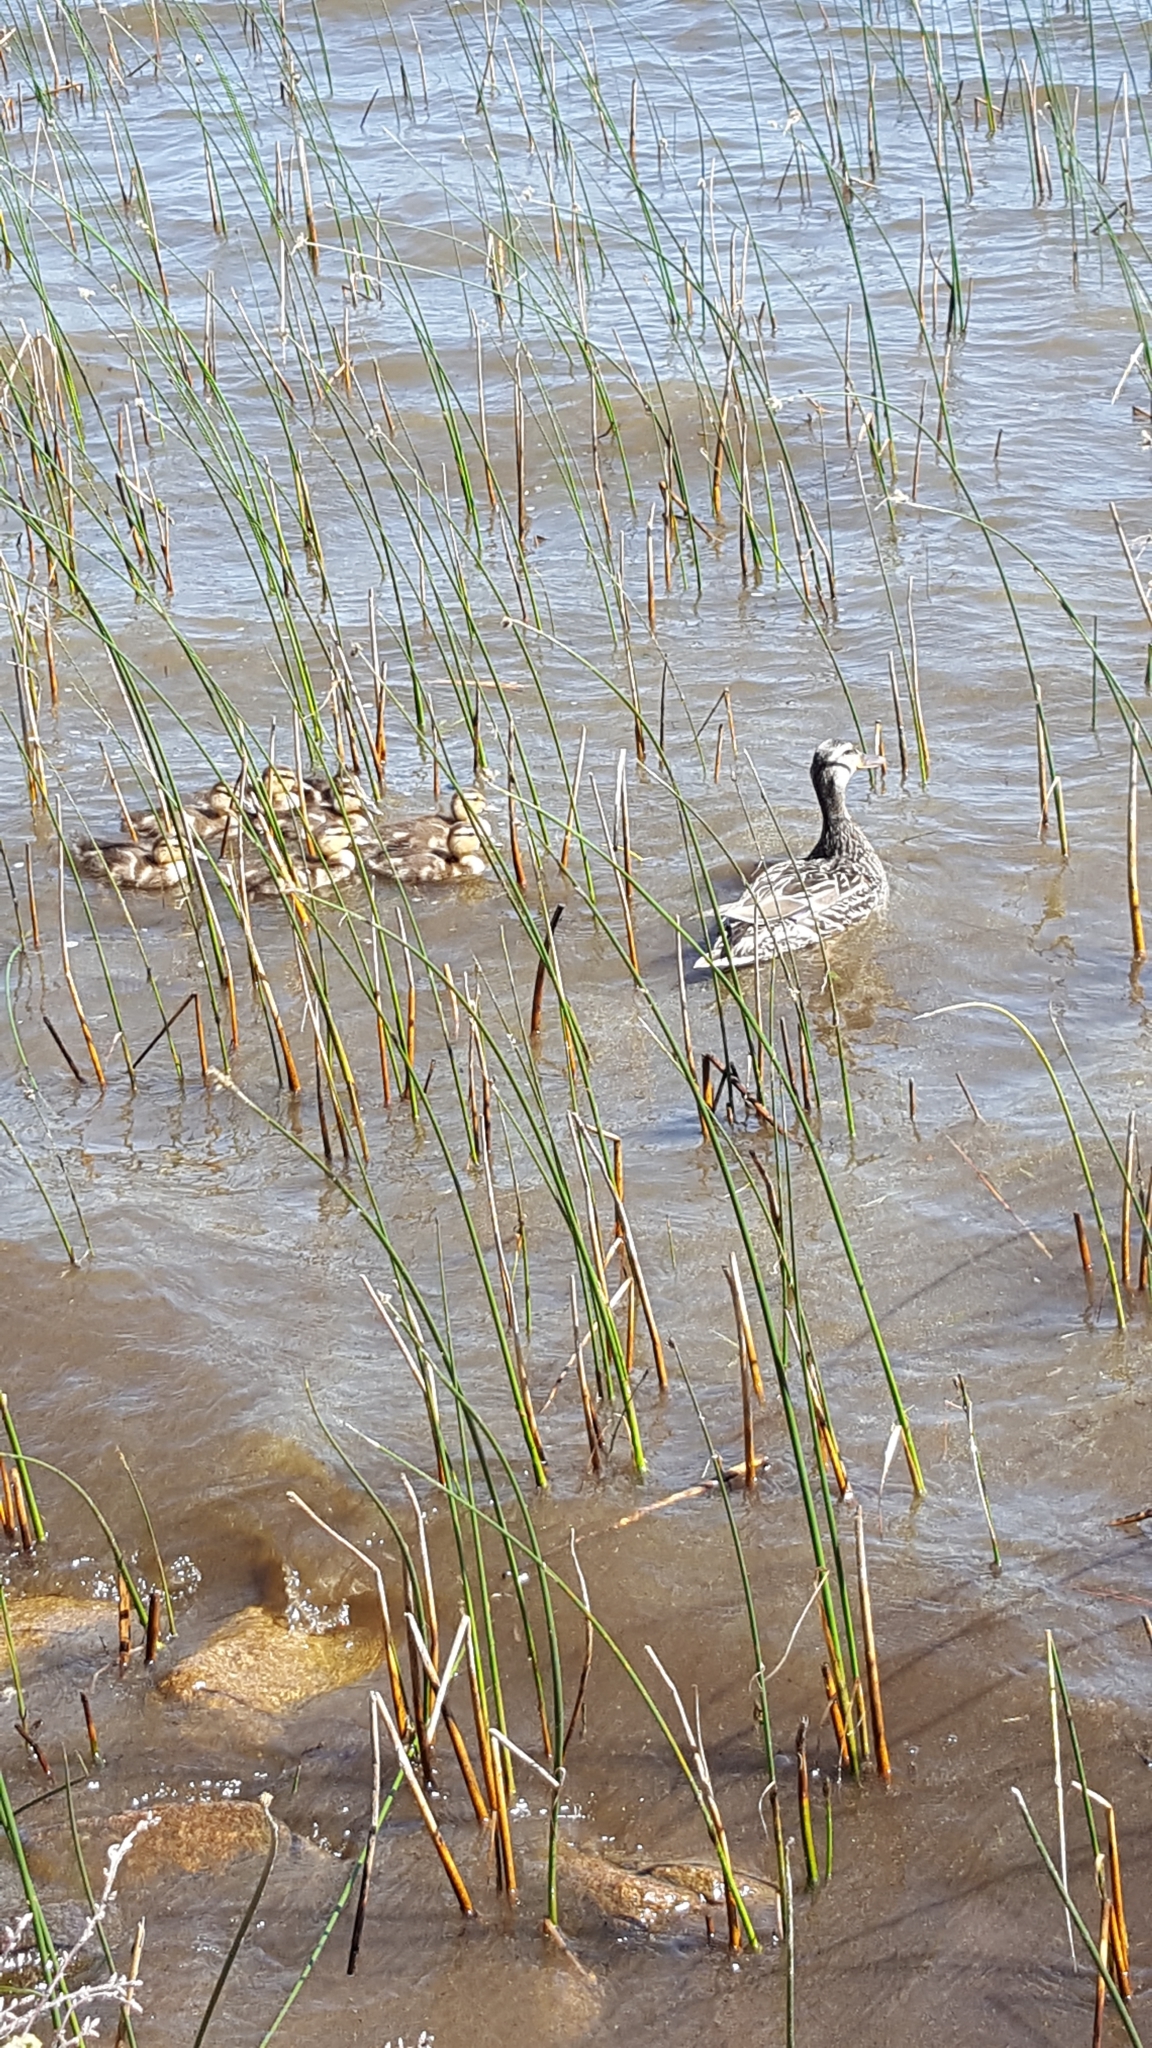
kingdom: Animalia
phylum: Chordata
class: Aves
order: Anseriformes
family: Anatidae
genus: Anas
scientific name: Anas platyrhynchos
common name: Mallard
